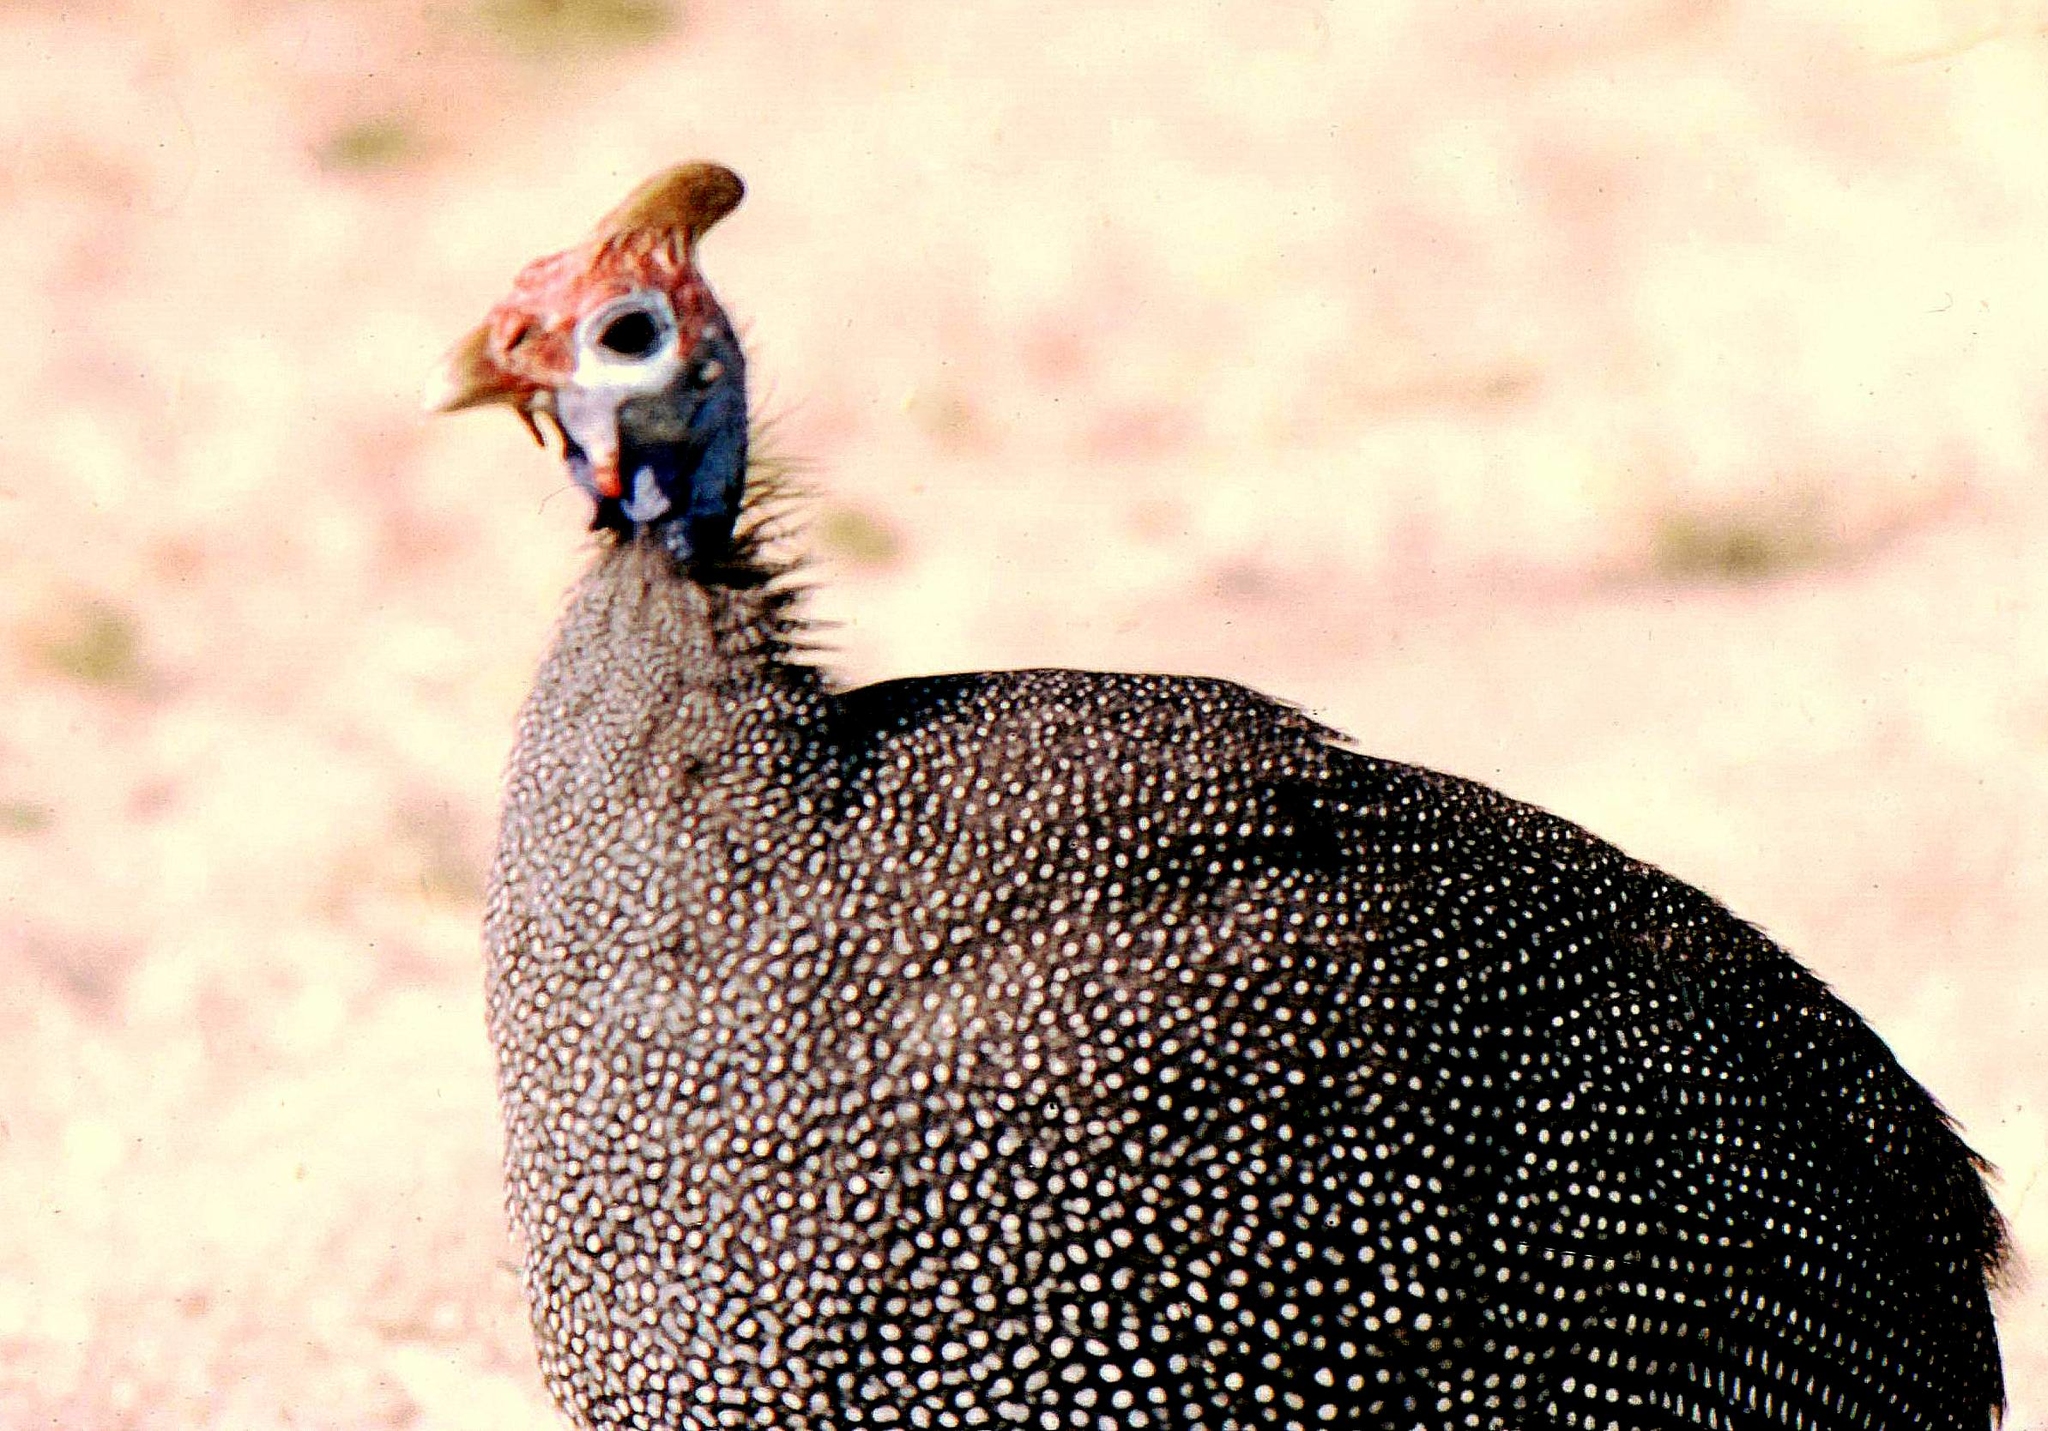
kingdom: Animalia
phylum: Chordata
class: Aves
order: Galliformes
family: Numididae
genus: Numida
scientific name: Numida meleagris
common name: Helmeted guineafowl
